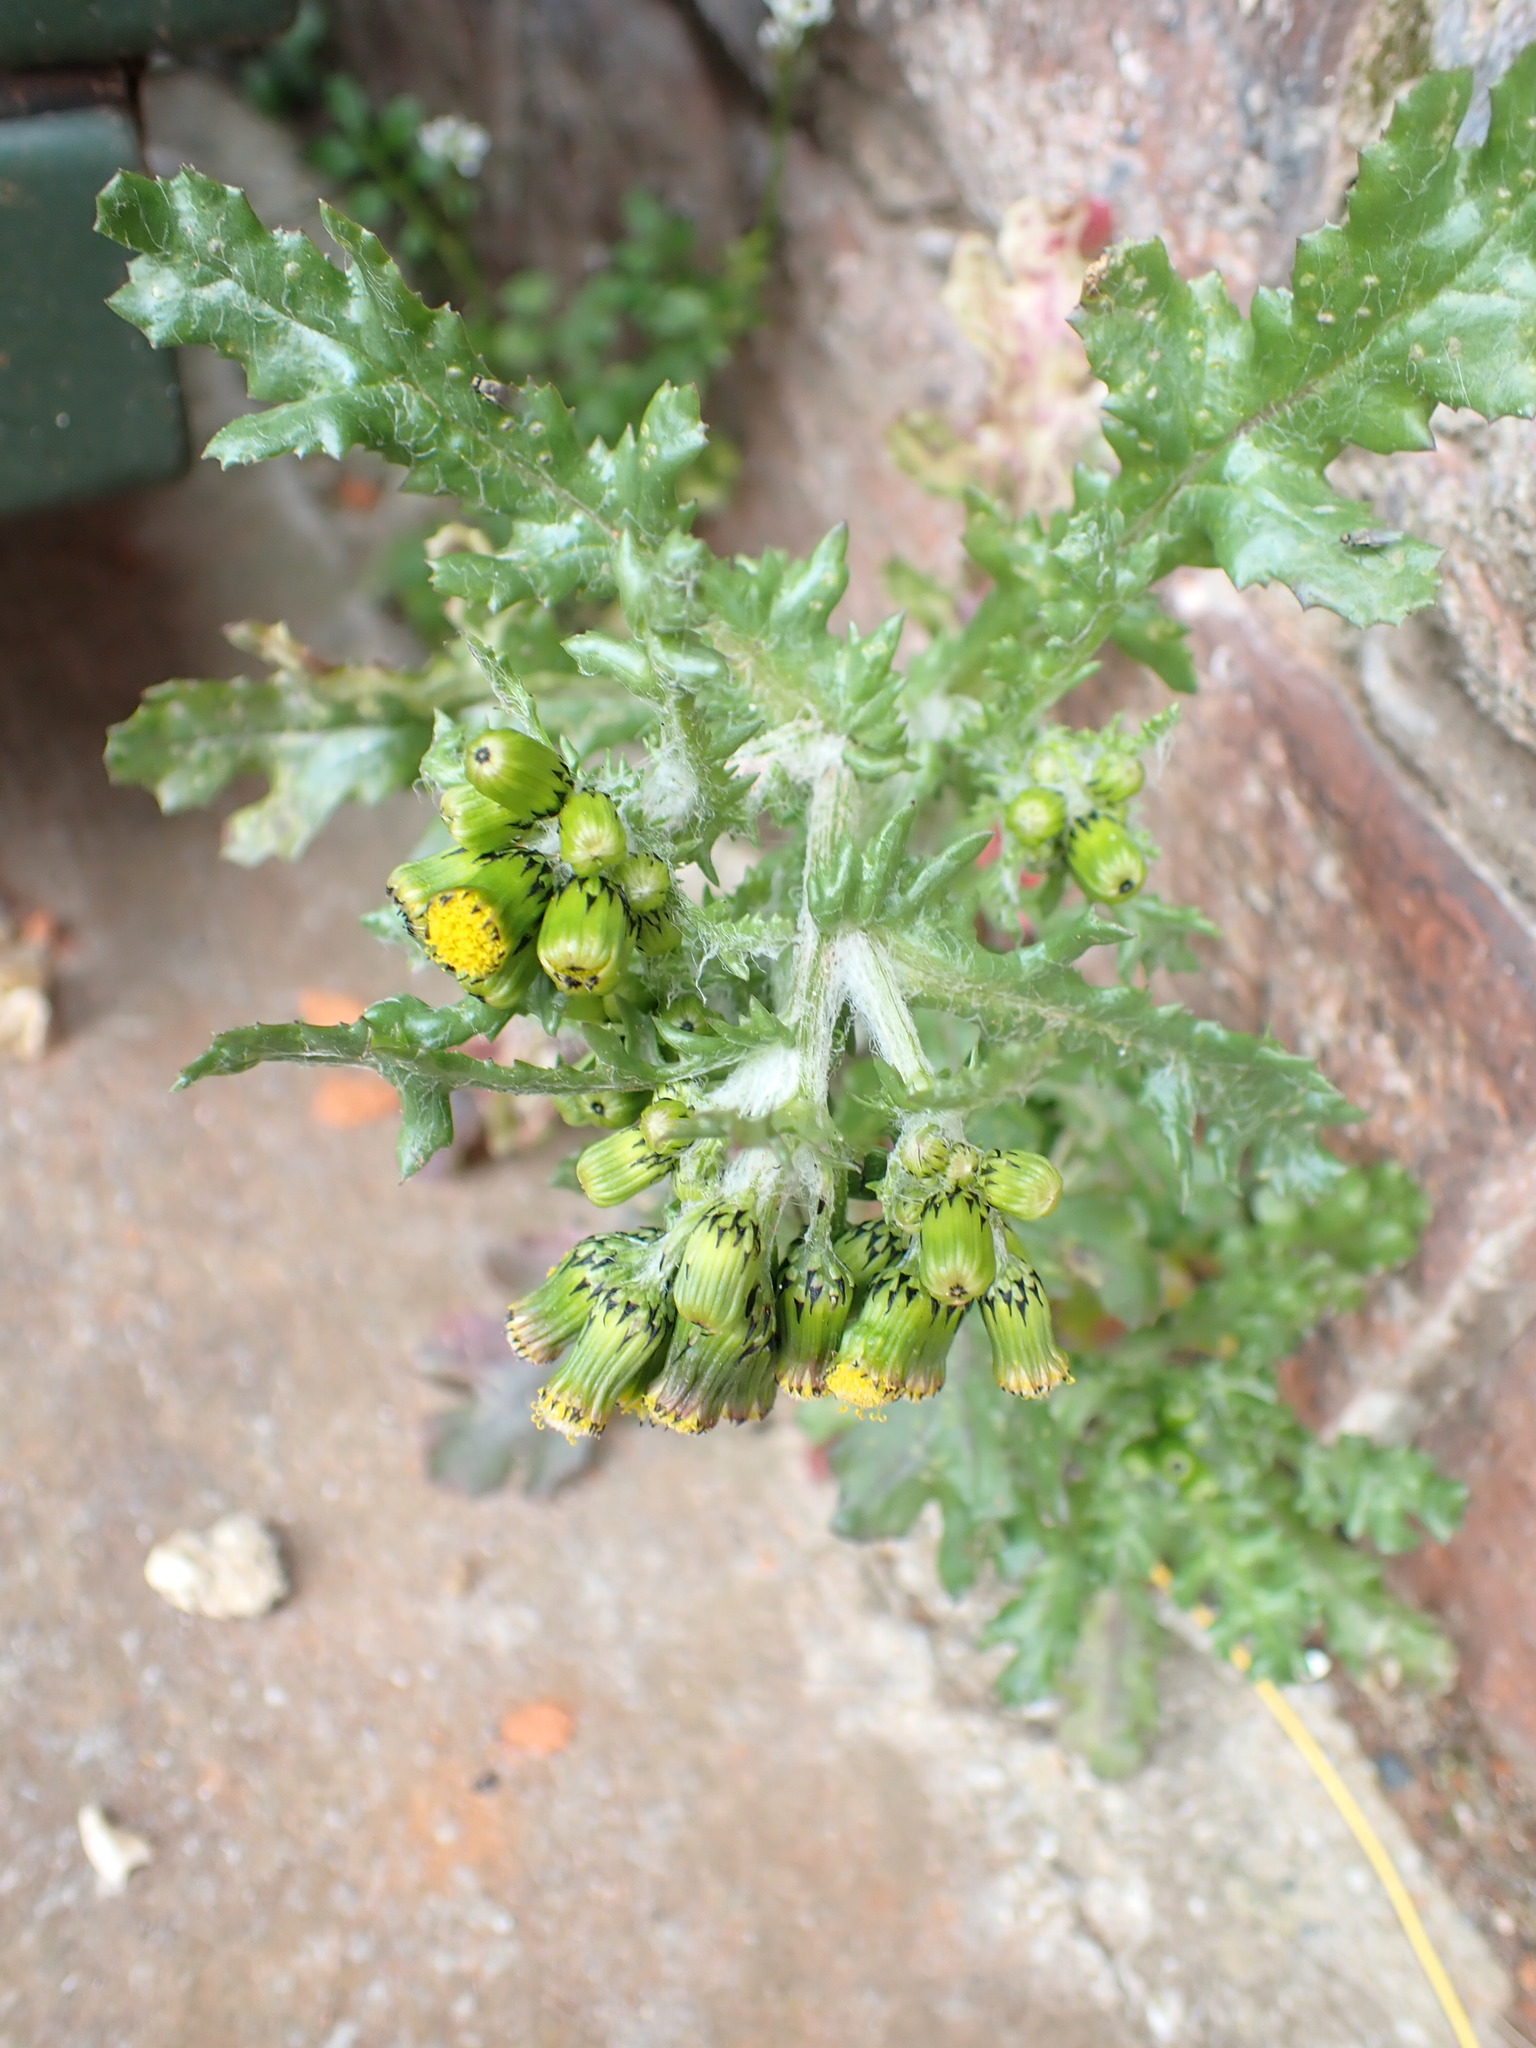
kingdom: Plantae
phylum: Tracheophyta
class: Magnoliopsida
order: Asterales
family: Asteraceae
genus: Senecio
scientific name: Senecio vulgaris
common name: Old-man-in-the-spring
